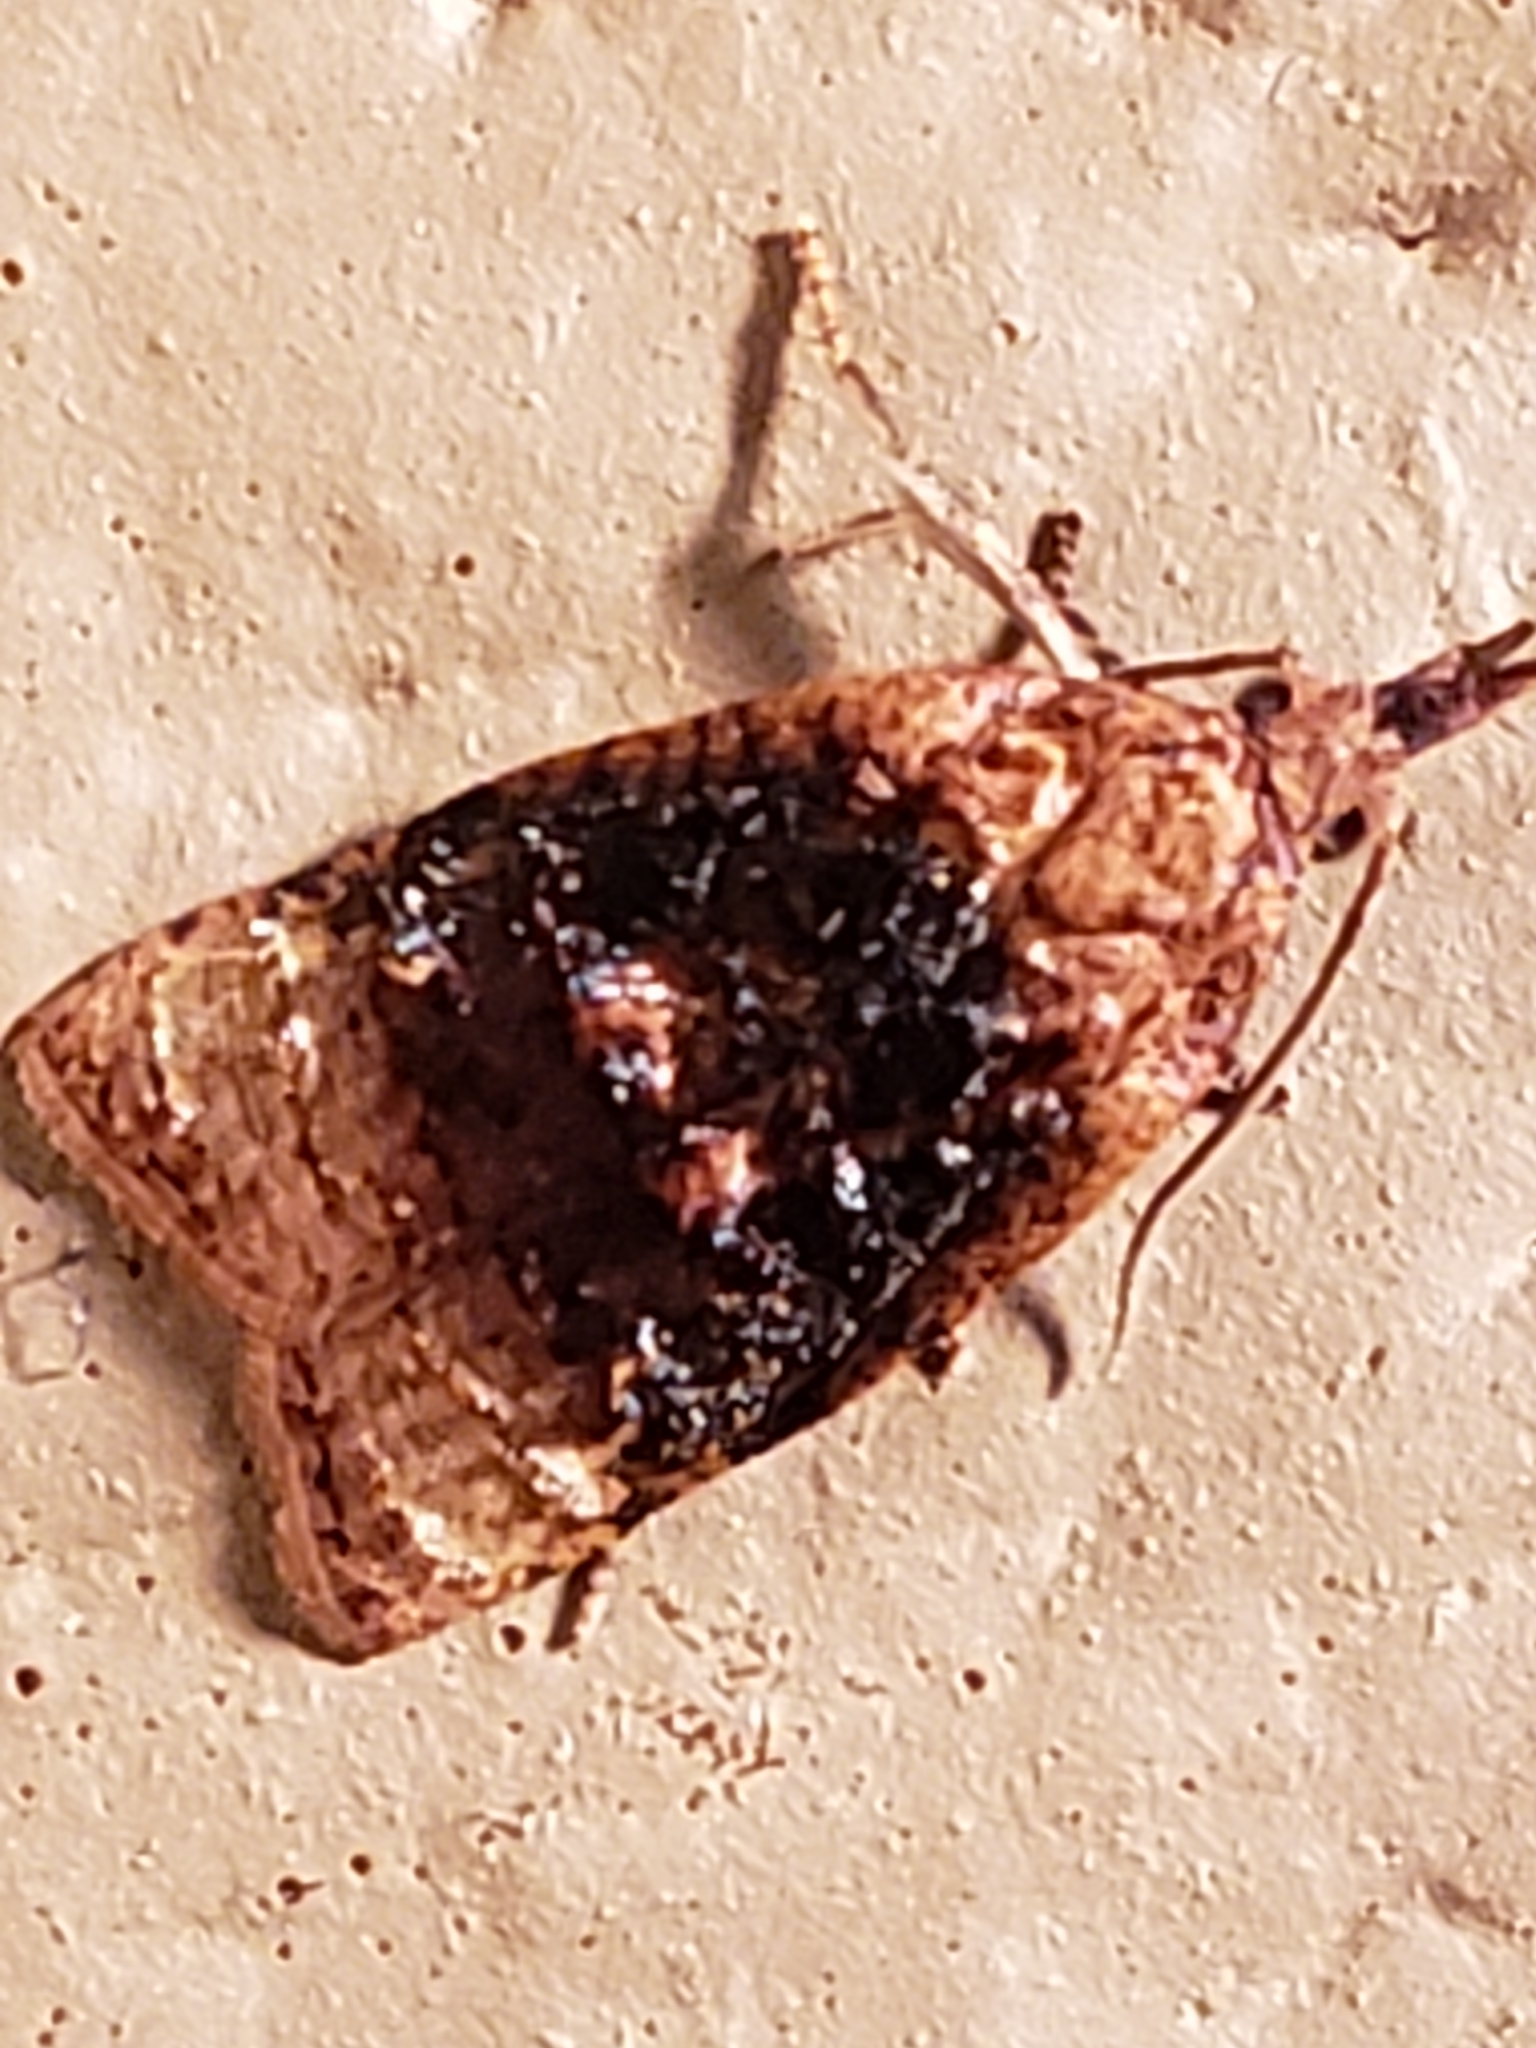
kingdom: Animalia
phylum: Arthropoda
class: Insecta
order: Lepidoptera
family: Tortricidae
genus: Platynota
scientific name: Platynota flavedana
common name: Black-shaded platynota moth
